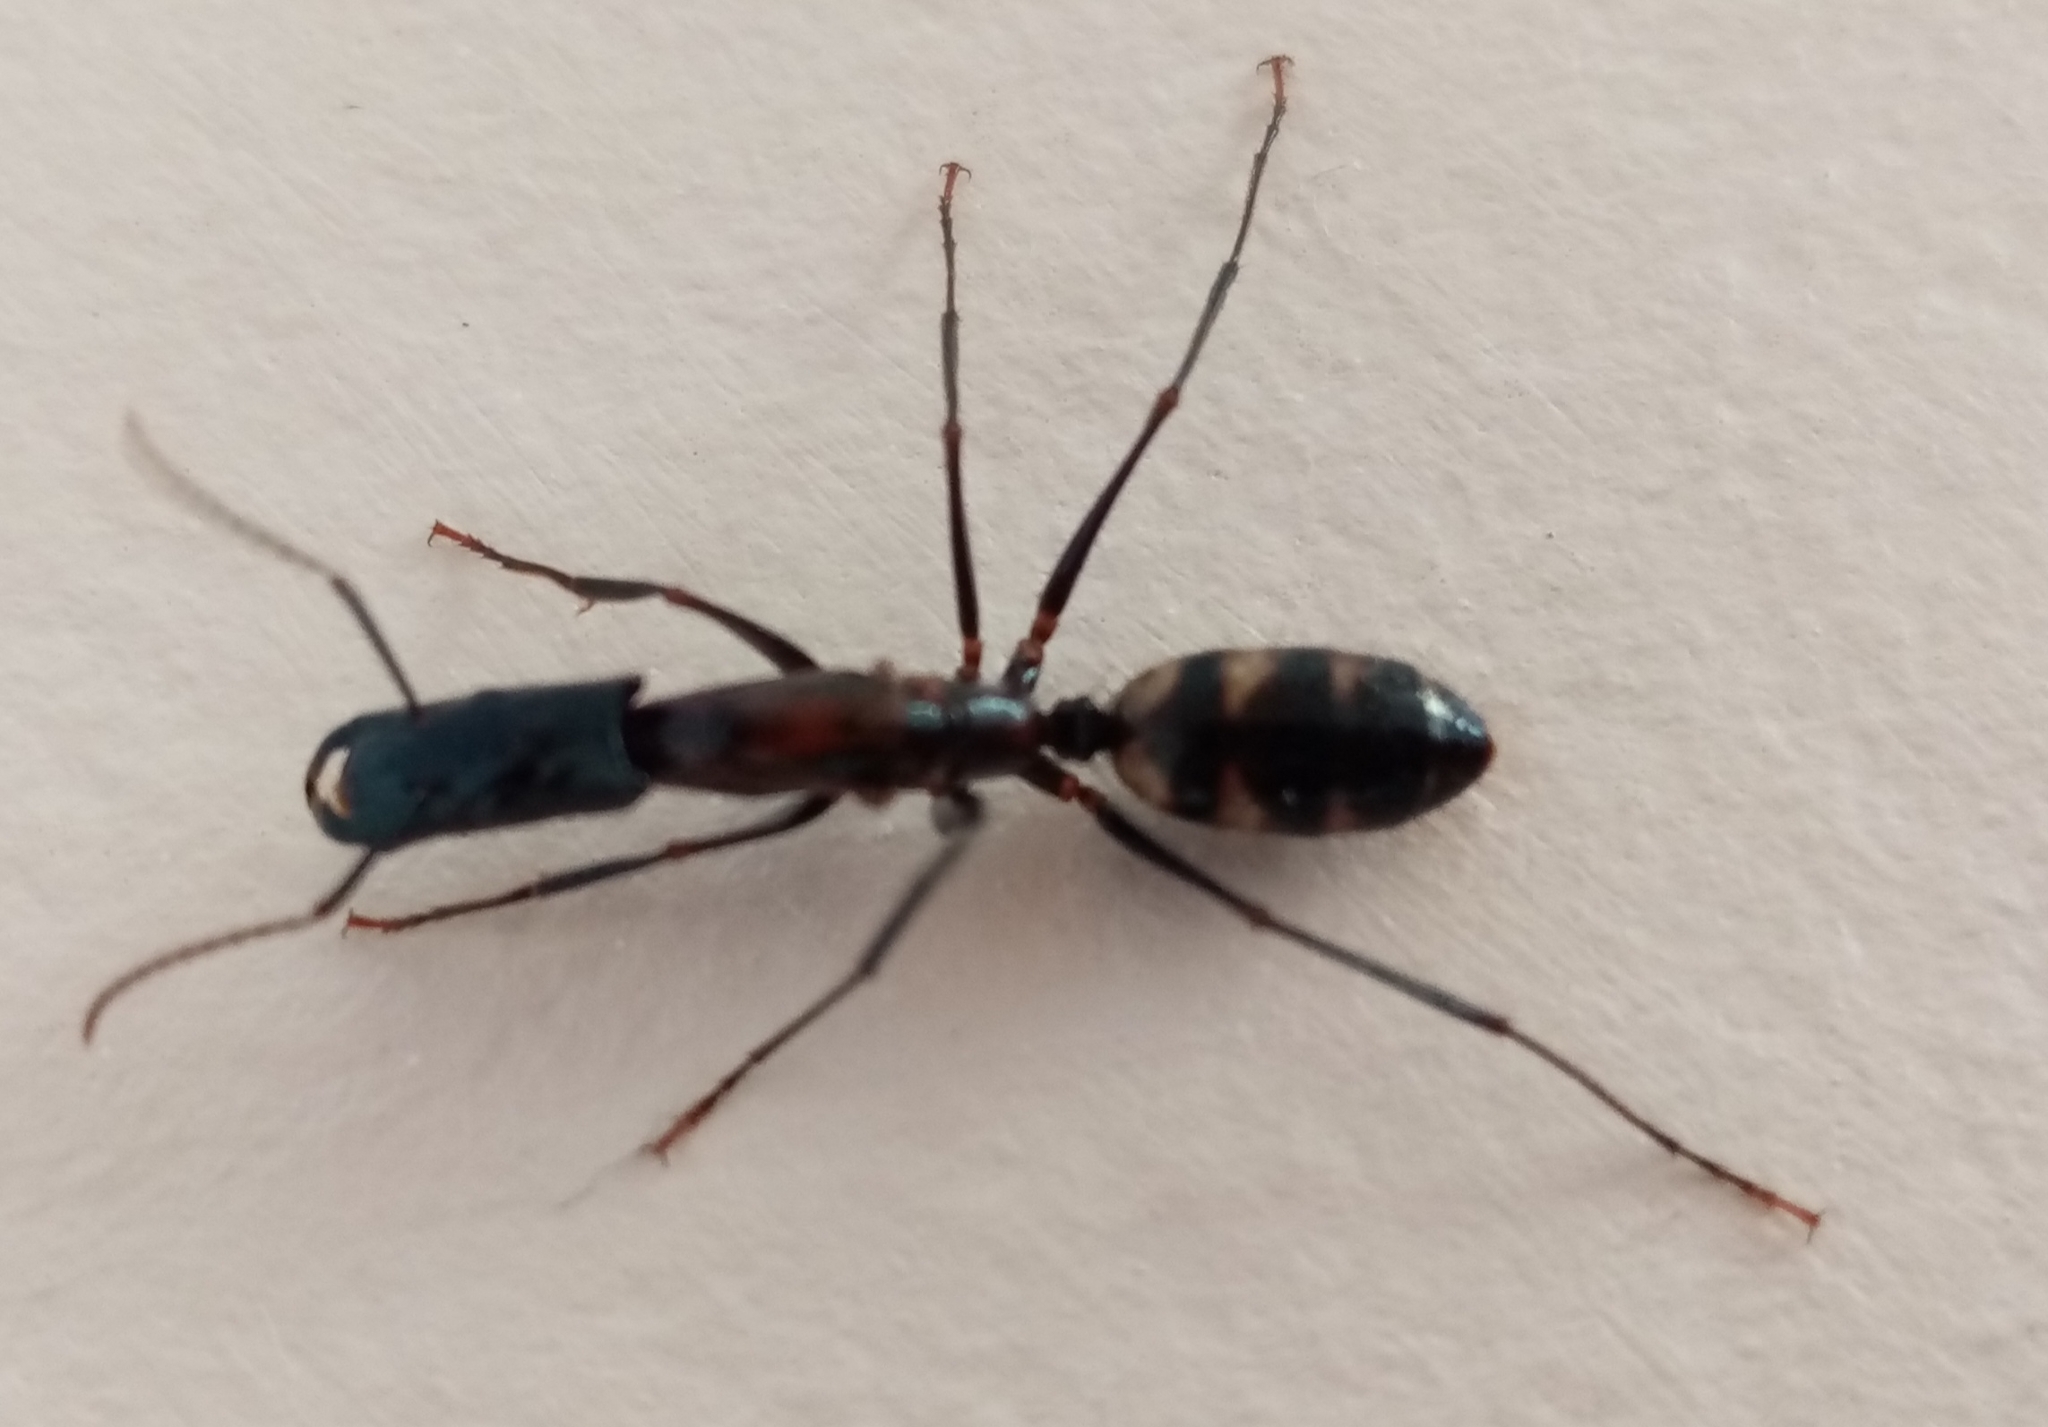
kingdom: Animalia
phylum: Arthropoda
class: Insecta
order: Hymenoptera
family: Formicidae
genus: Camponotus
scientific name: Camponotus mirabilis
